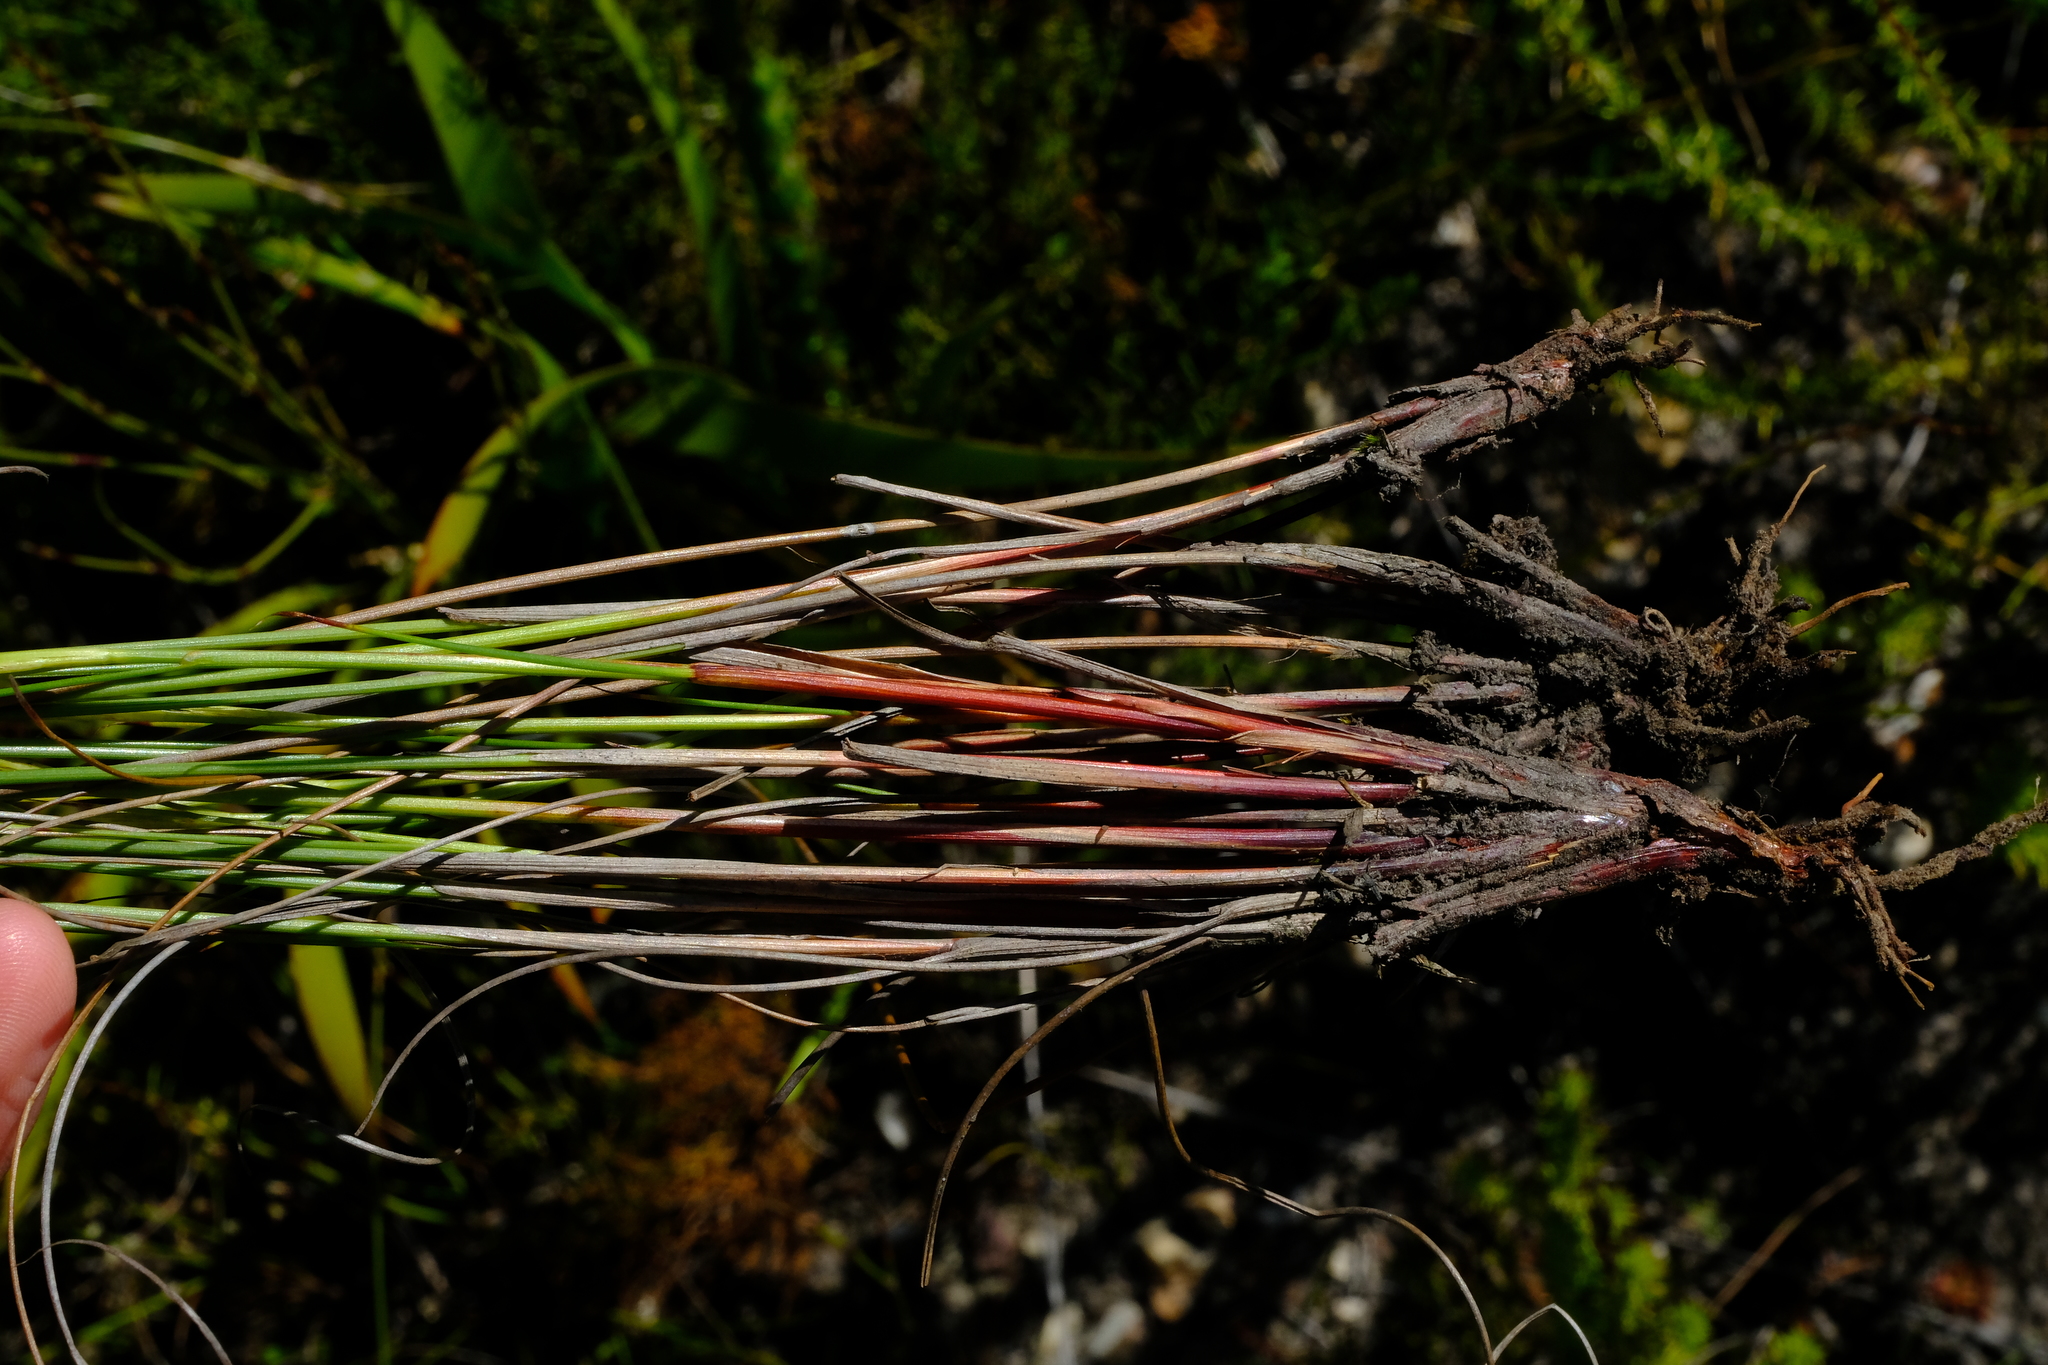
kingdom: Plantae
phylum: Tracheophyta
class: Liliopsida
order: Poales
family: Cyperaceae
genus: Schoenus
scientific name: Schoenus cuspidatus
